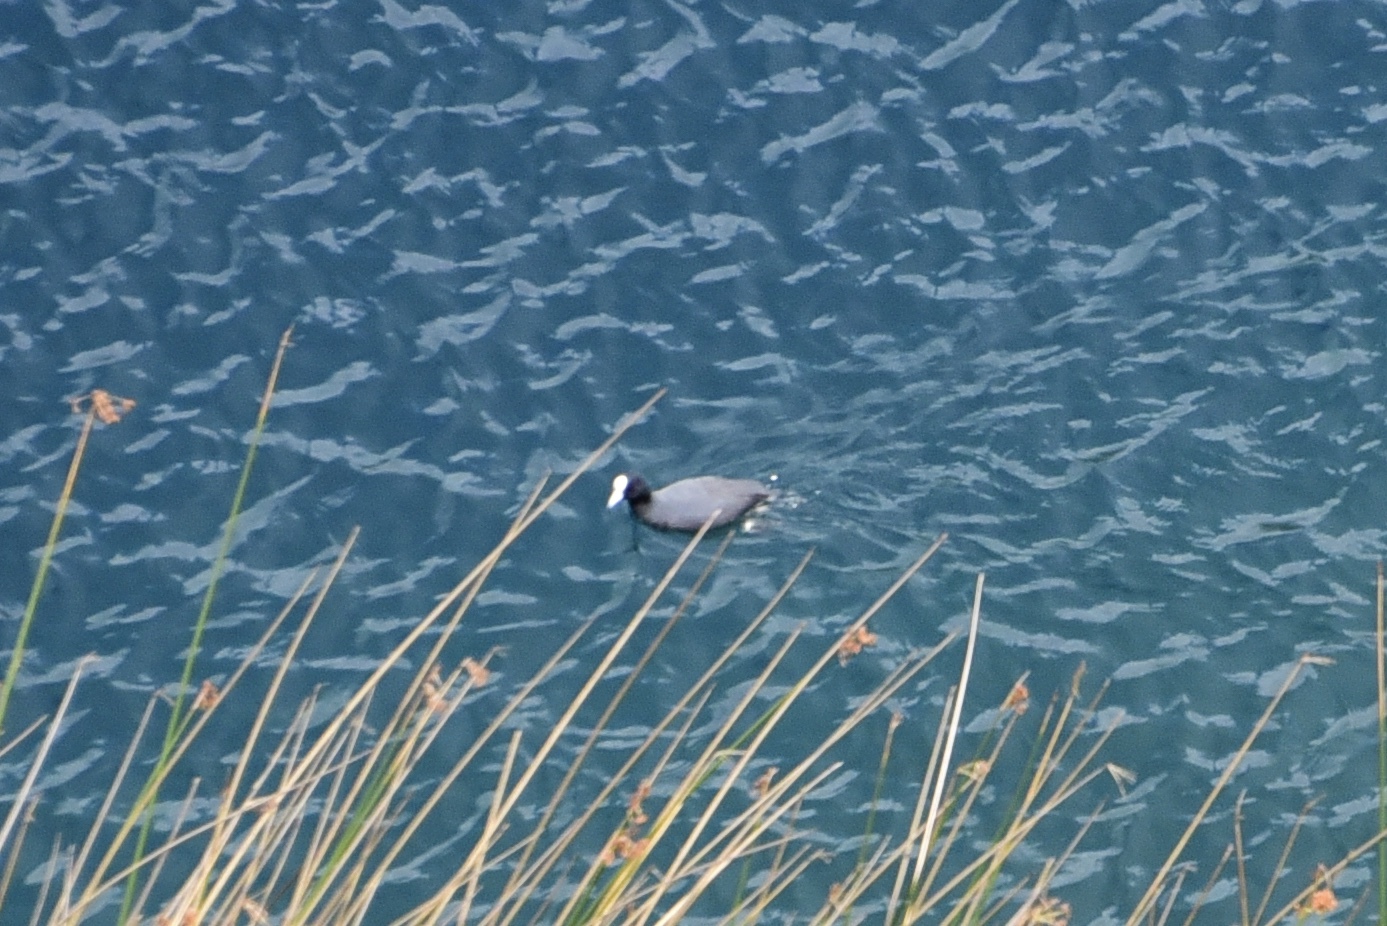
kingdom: Animalia
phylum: Chordata
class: Aves
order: Gruiformes
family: Rallidae
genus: Fulica
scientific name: Fulica ardesiaca
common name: Andean coot
